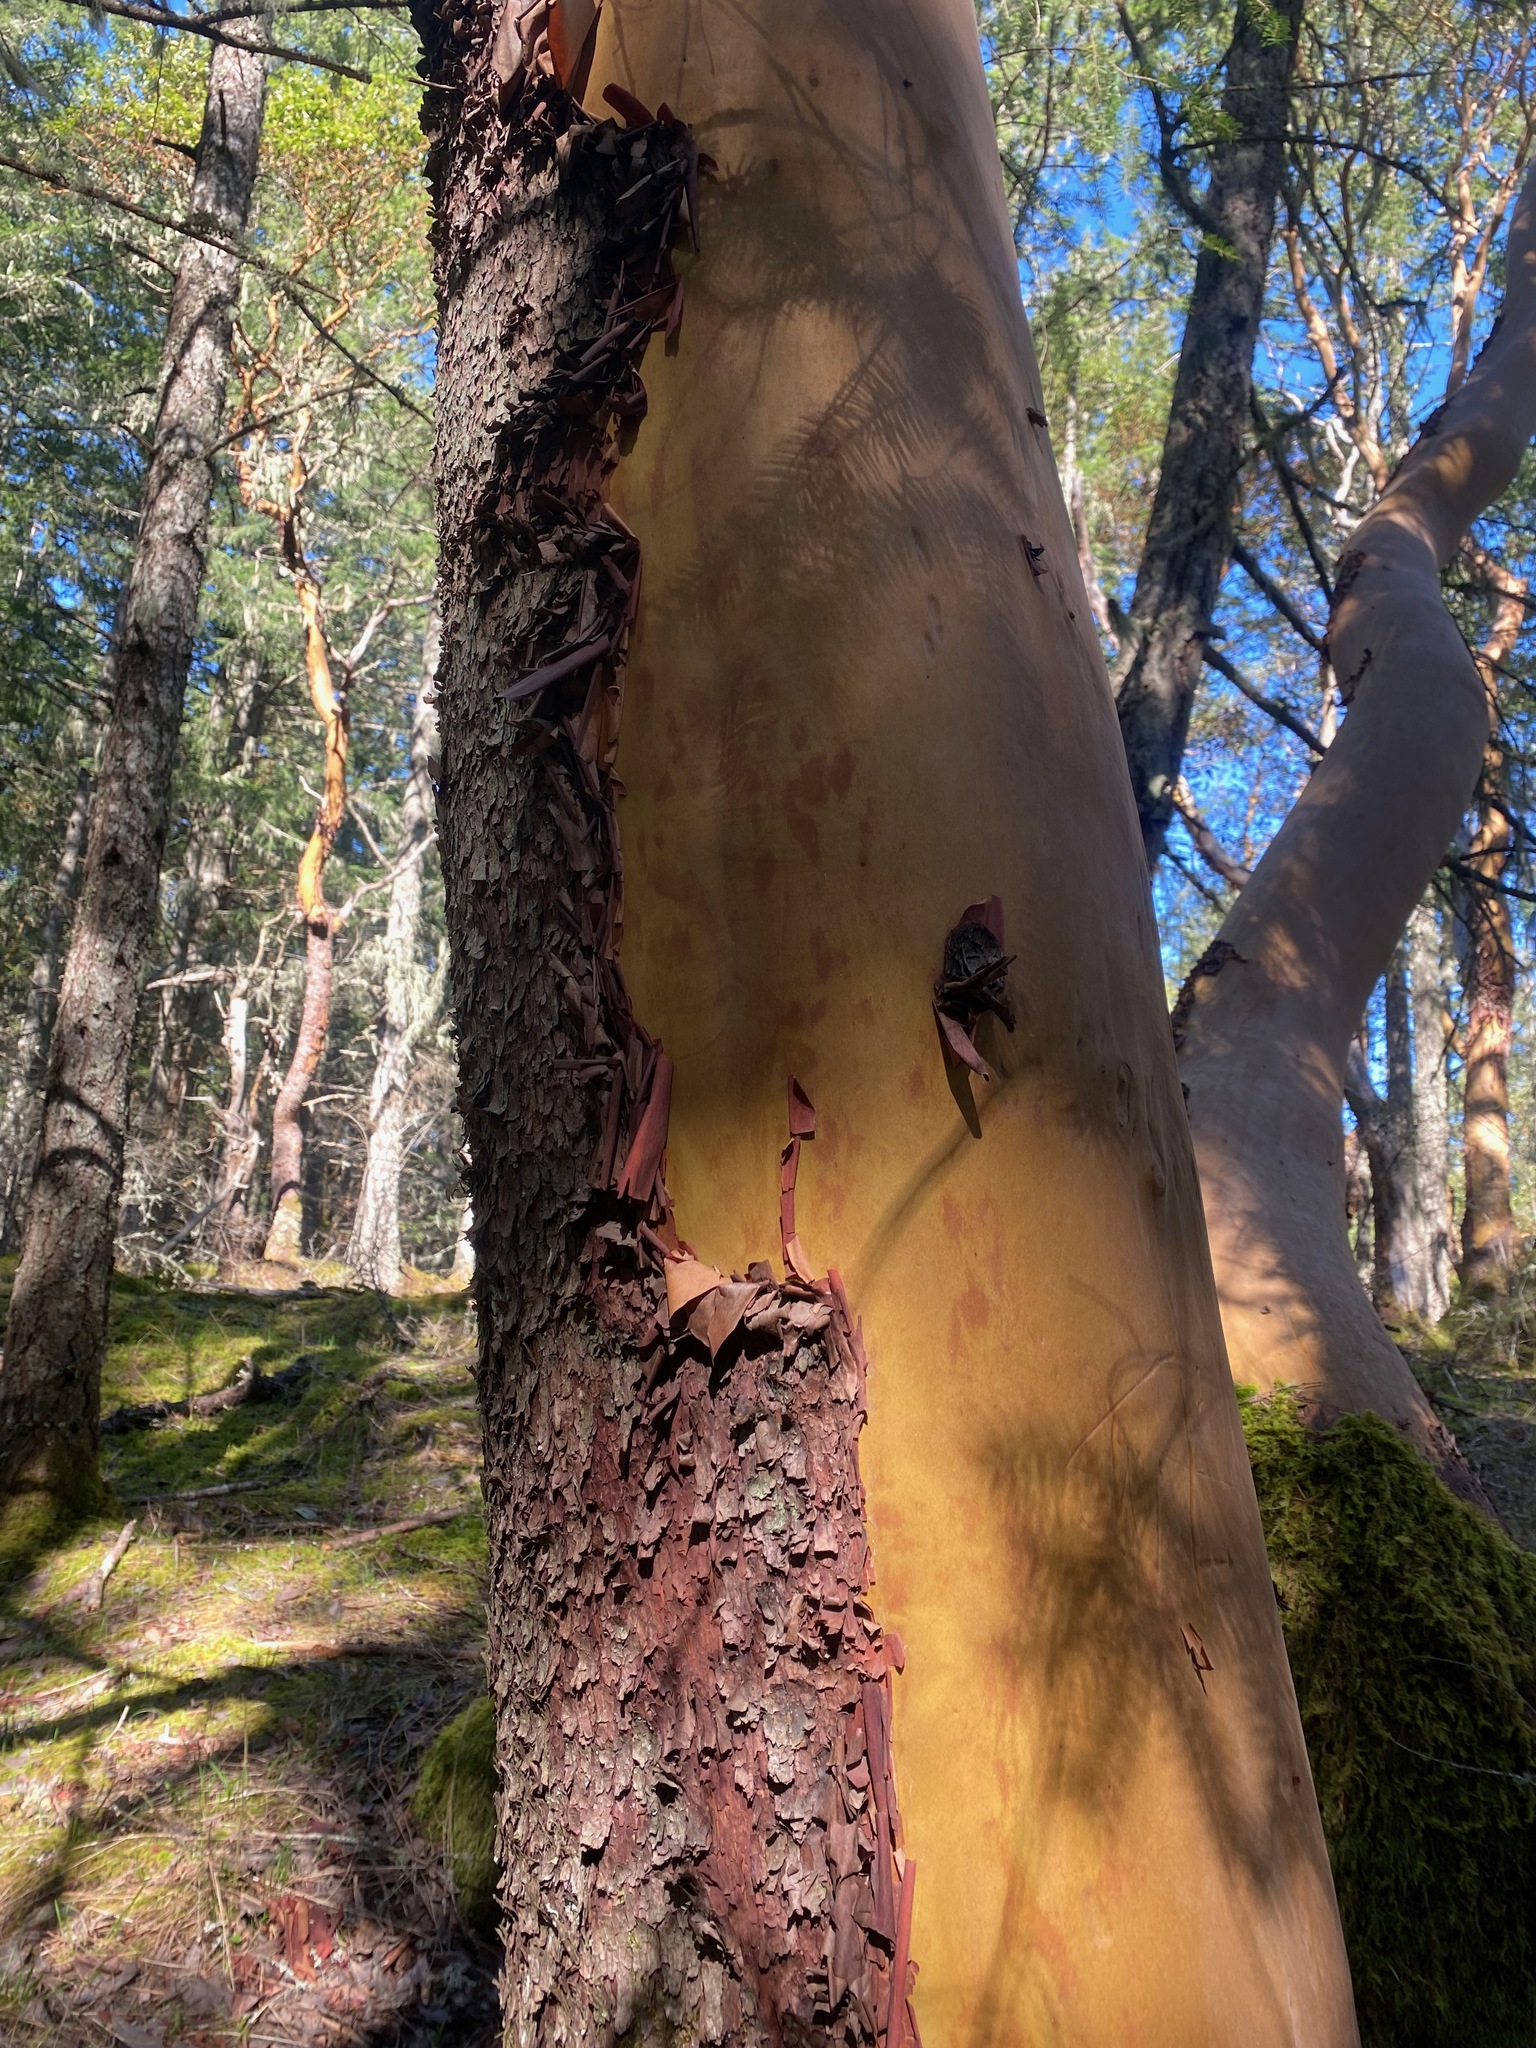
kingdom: Plantae
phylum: Tracheophyta
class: Magnoliopsida
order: Ericales
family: Ericaceae
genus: Arbutus
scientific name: Arbutus menziesii
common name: Pacific madrone
